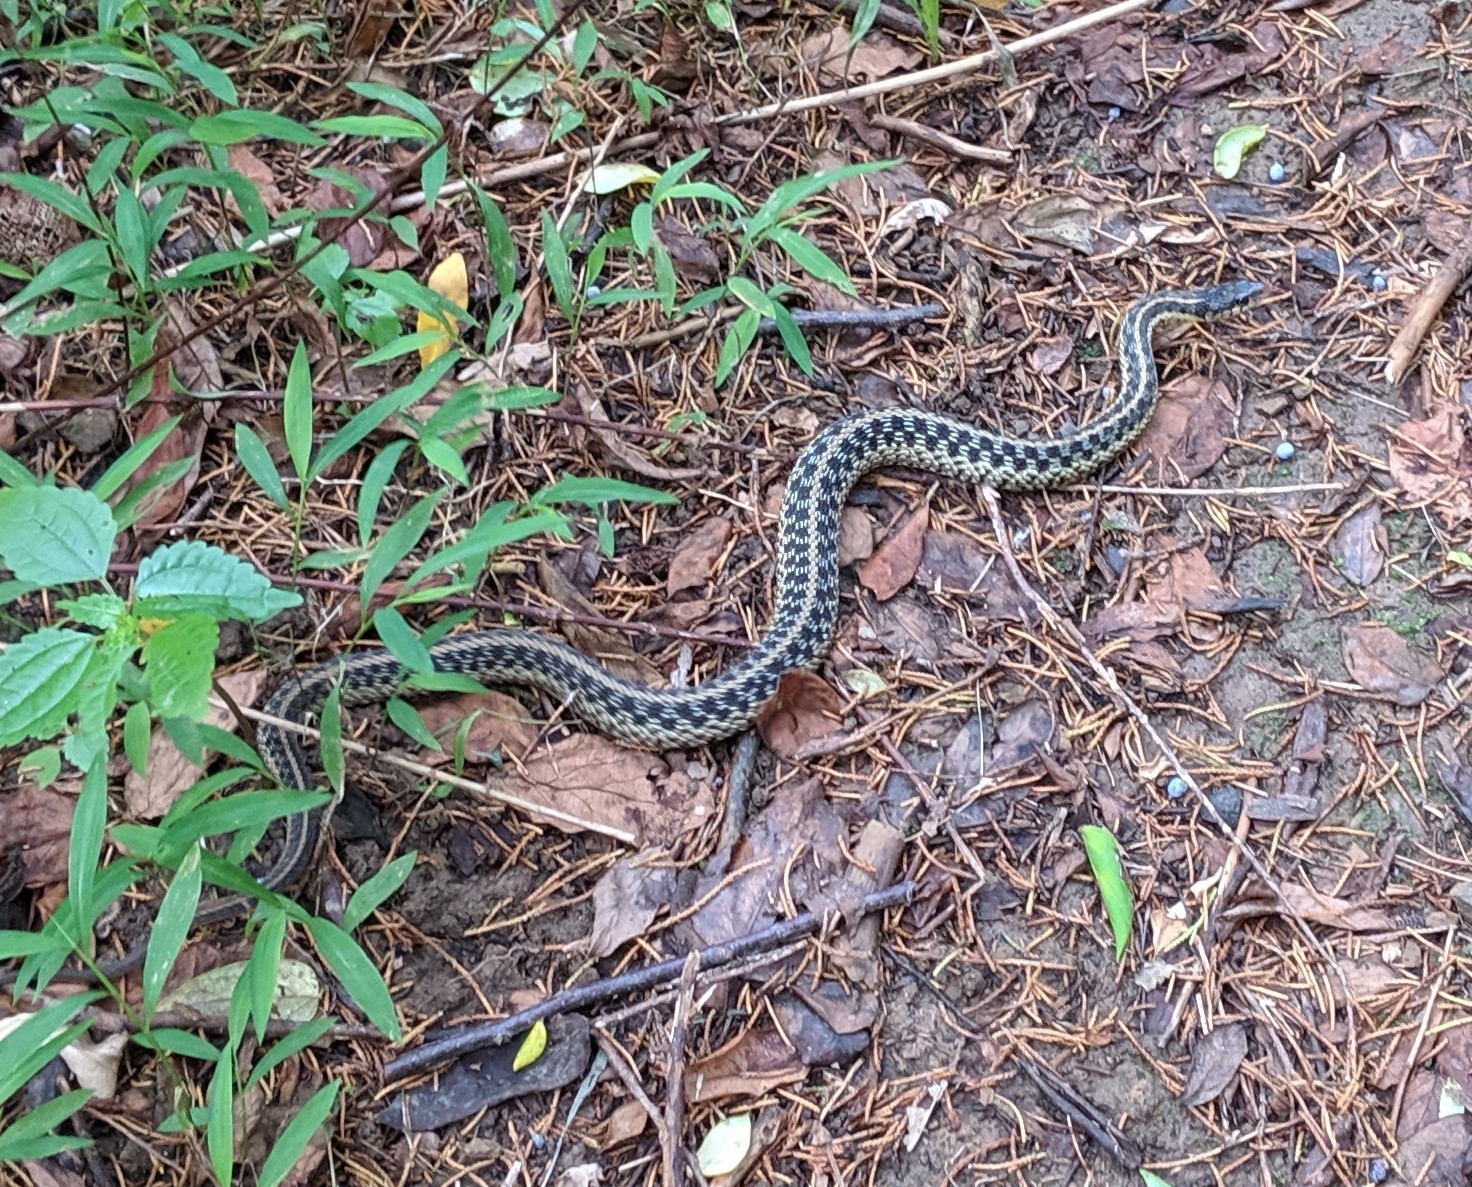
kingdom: Animalia
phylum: Chordata
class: Squamata
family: Colubridae
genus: Thamnophis
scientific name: Thamnophis sirtalis
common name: Common garter snake
